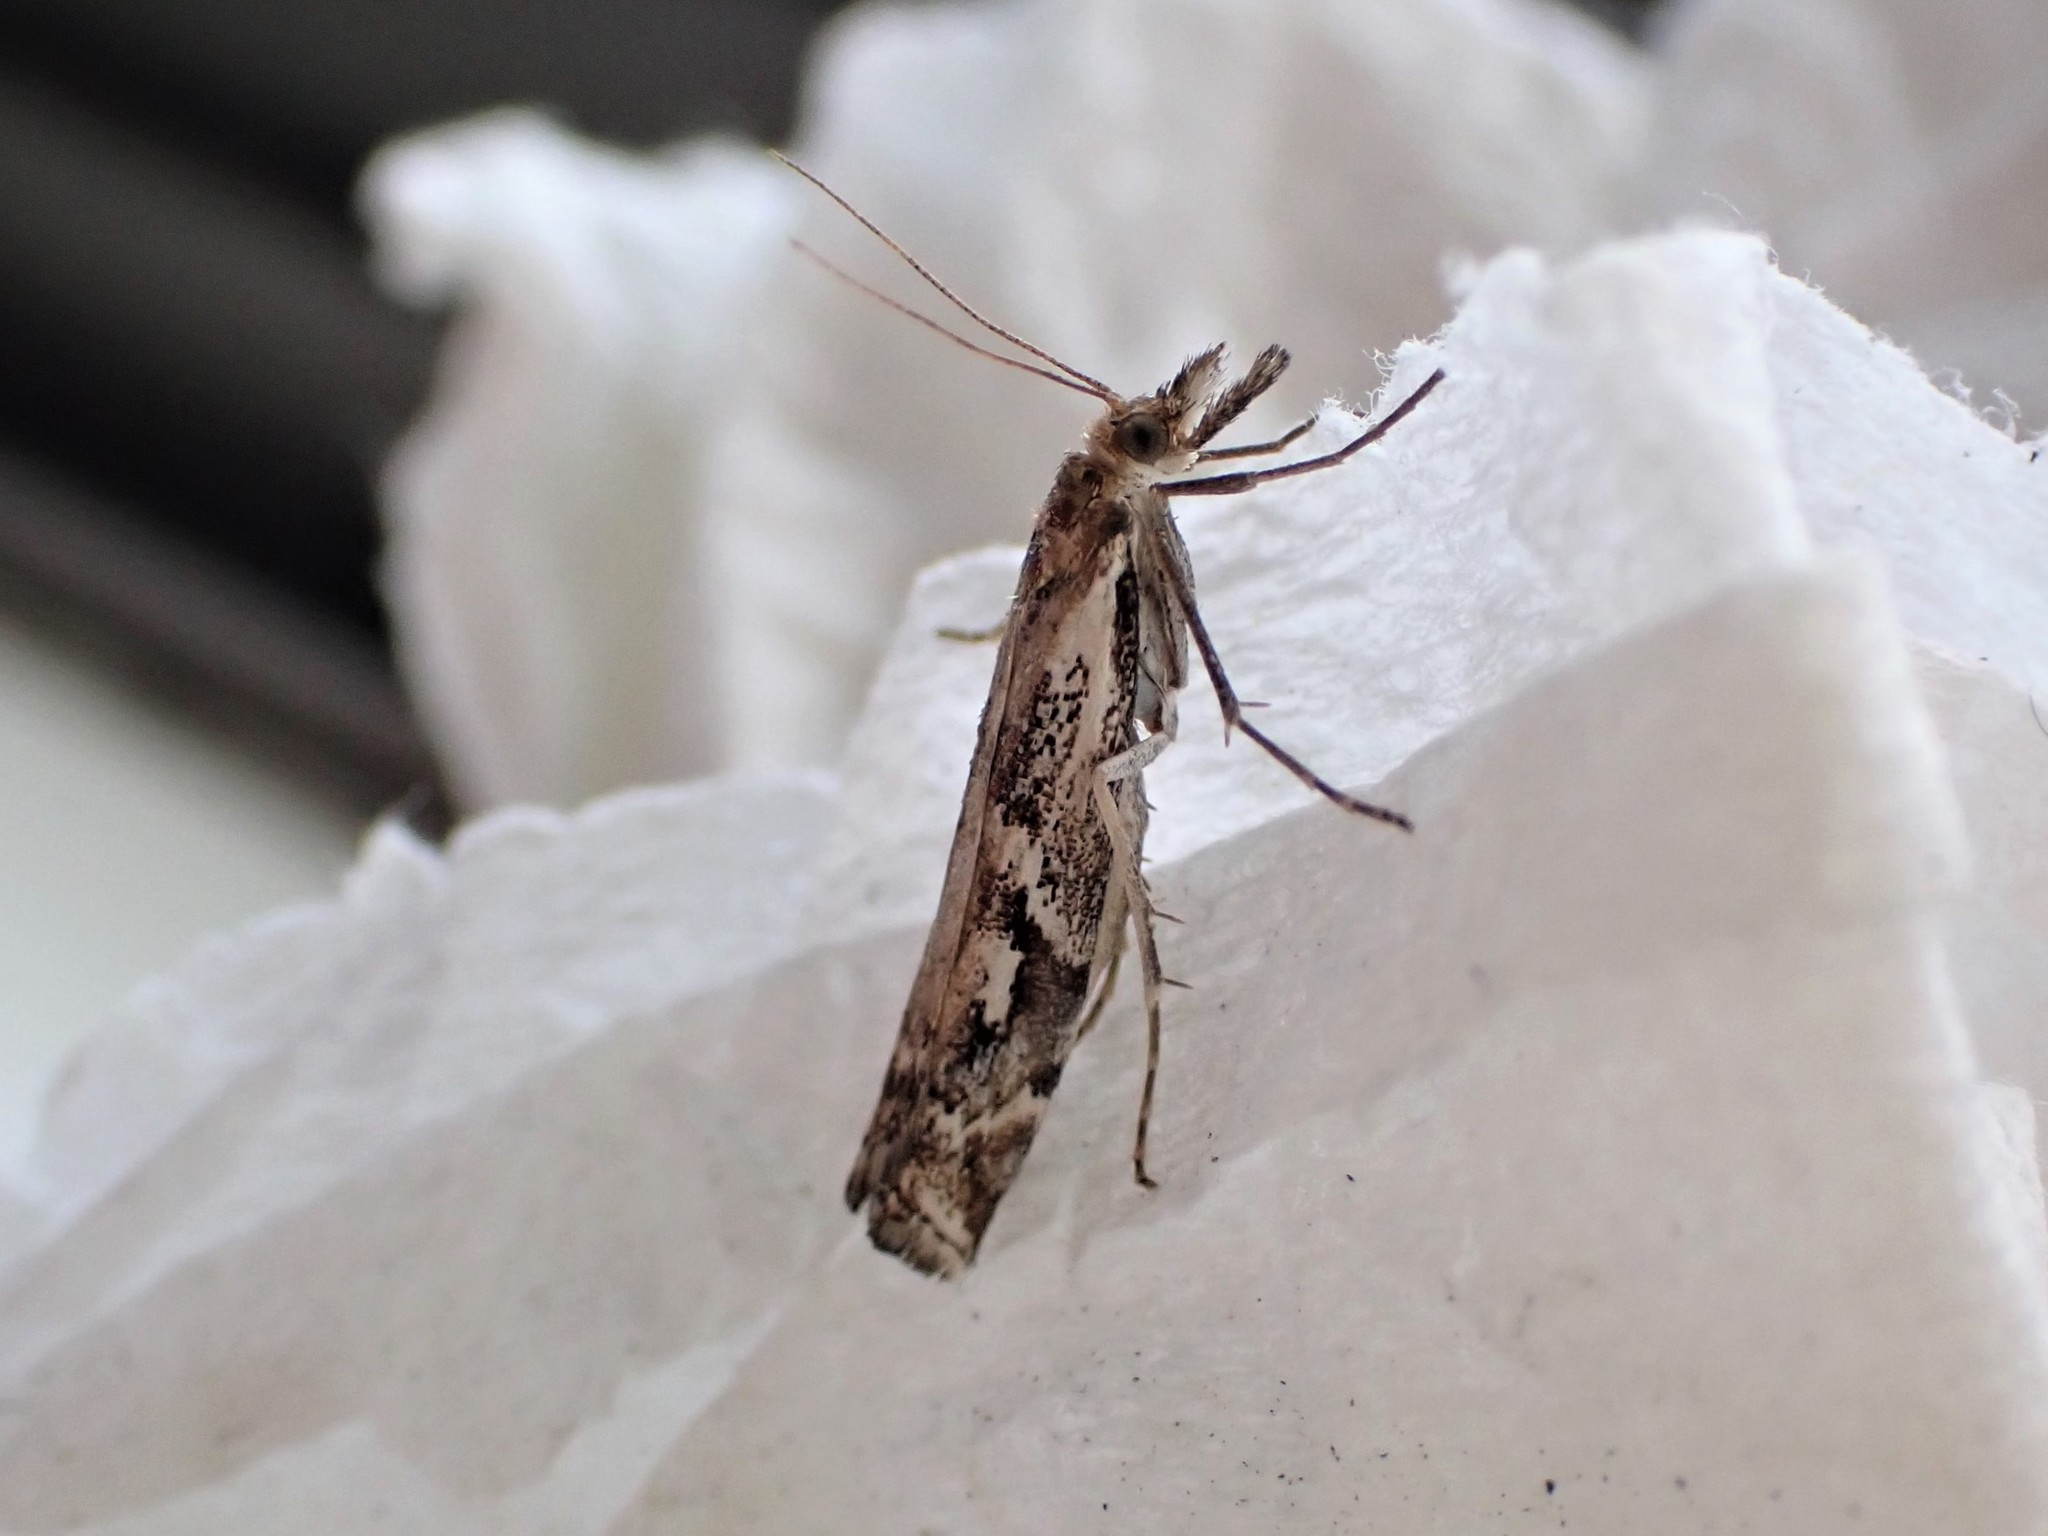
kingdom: Animalia
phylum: Arthropoda
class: Insecta
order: Lepidoptera
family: Crambidae
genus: Orocrambus
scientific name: Orocrambus vulgaris
